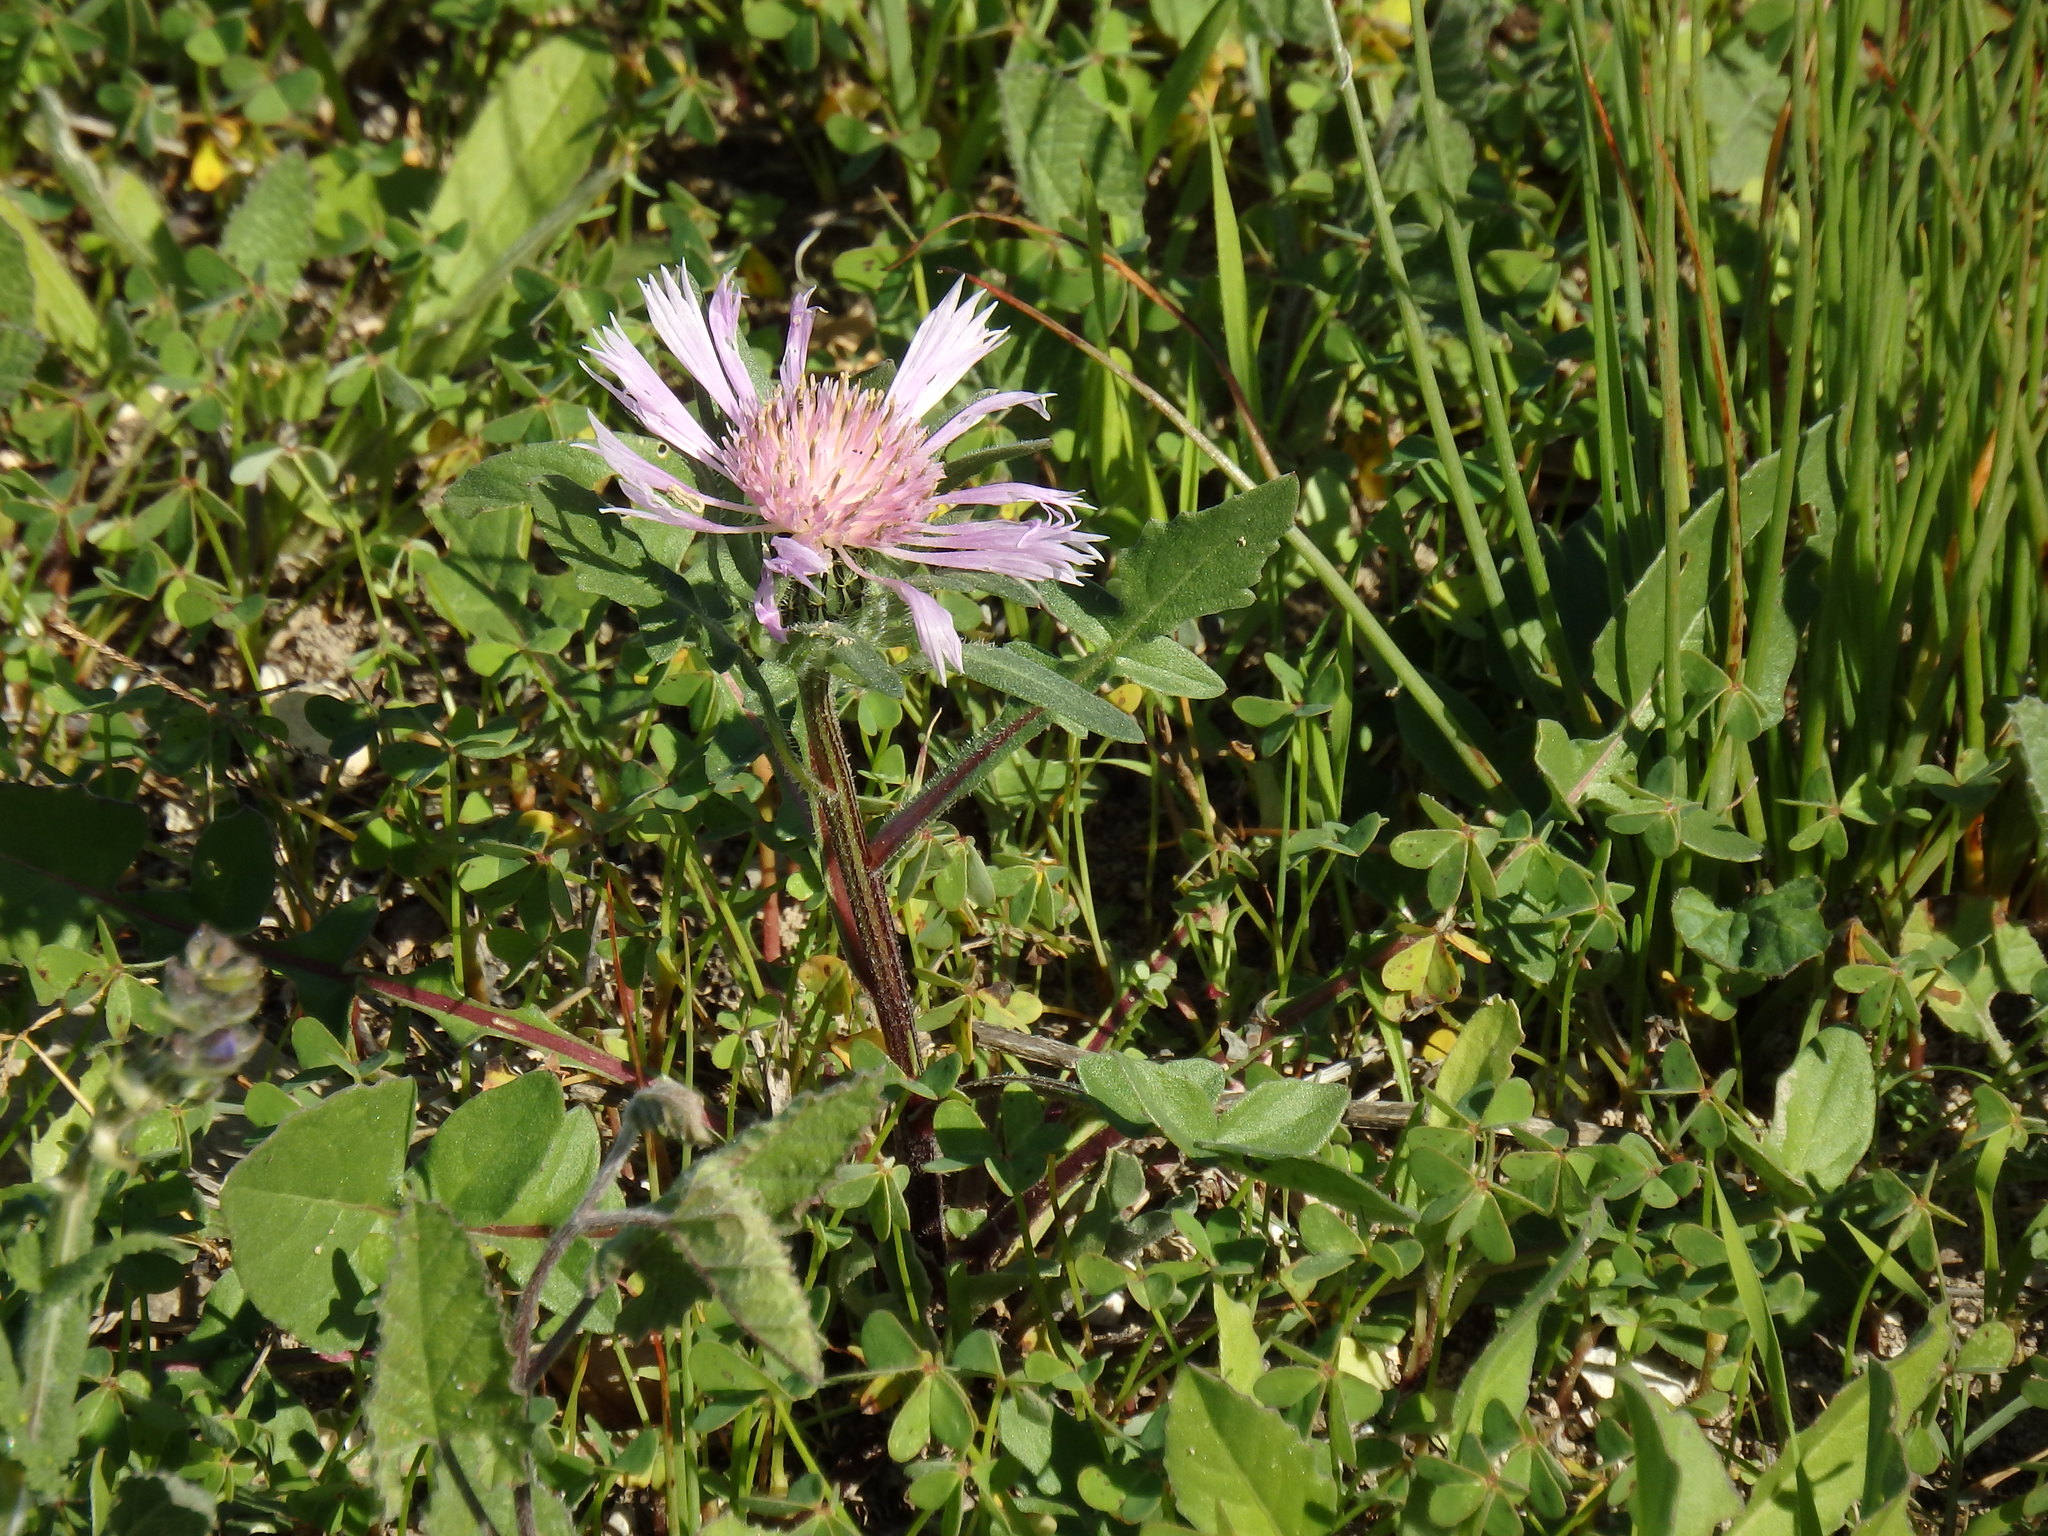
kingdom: Plantae
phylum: Tracheophyta
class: Magnoliopsida
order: Asterales
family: Asteraceae
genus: Centaurea
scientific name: Centaurea pullata
